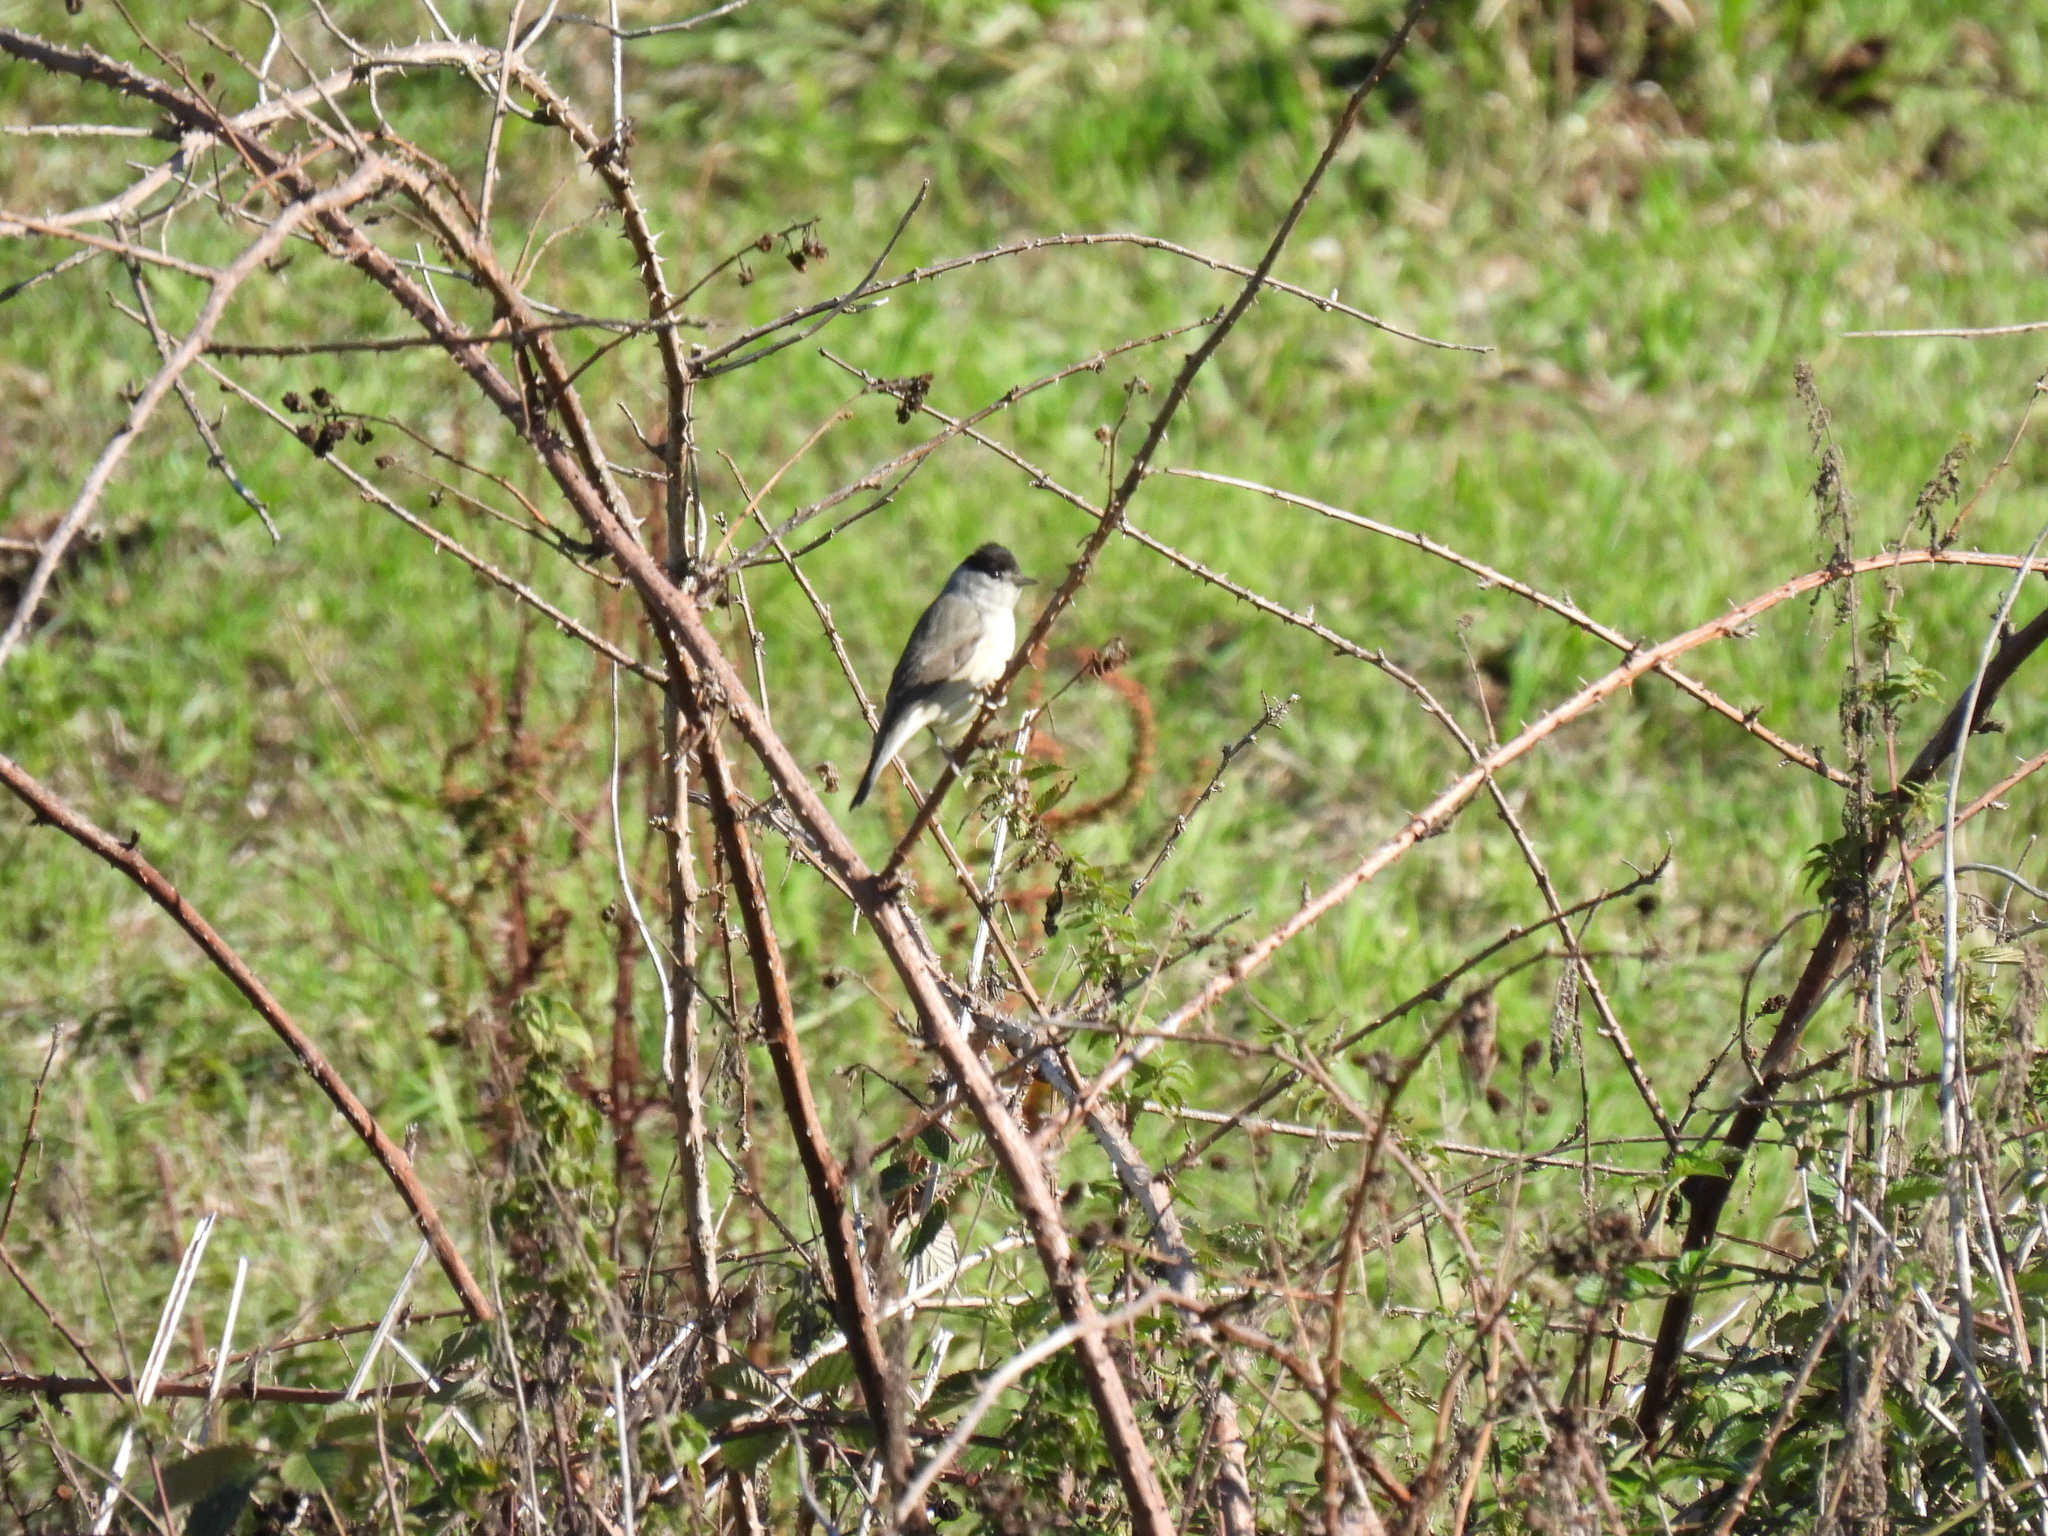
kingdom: Animalia
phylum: Chordata
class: Aves
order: Passeriformes
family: Sylviidae
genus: Sylvia
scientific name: Sylvia atricapilla
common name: Eurasian blackcap
